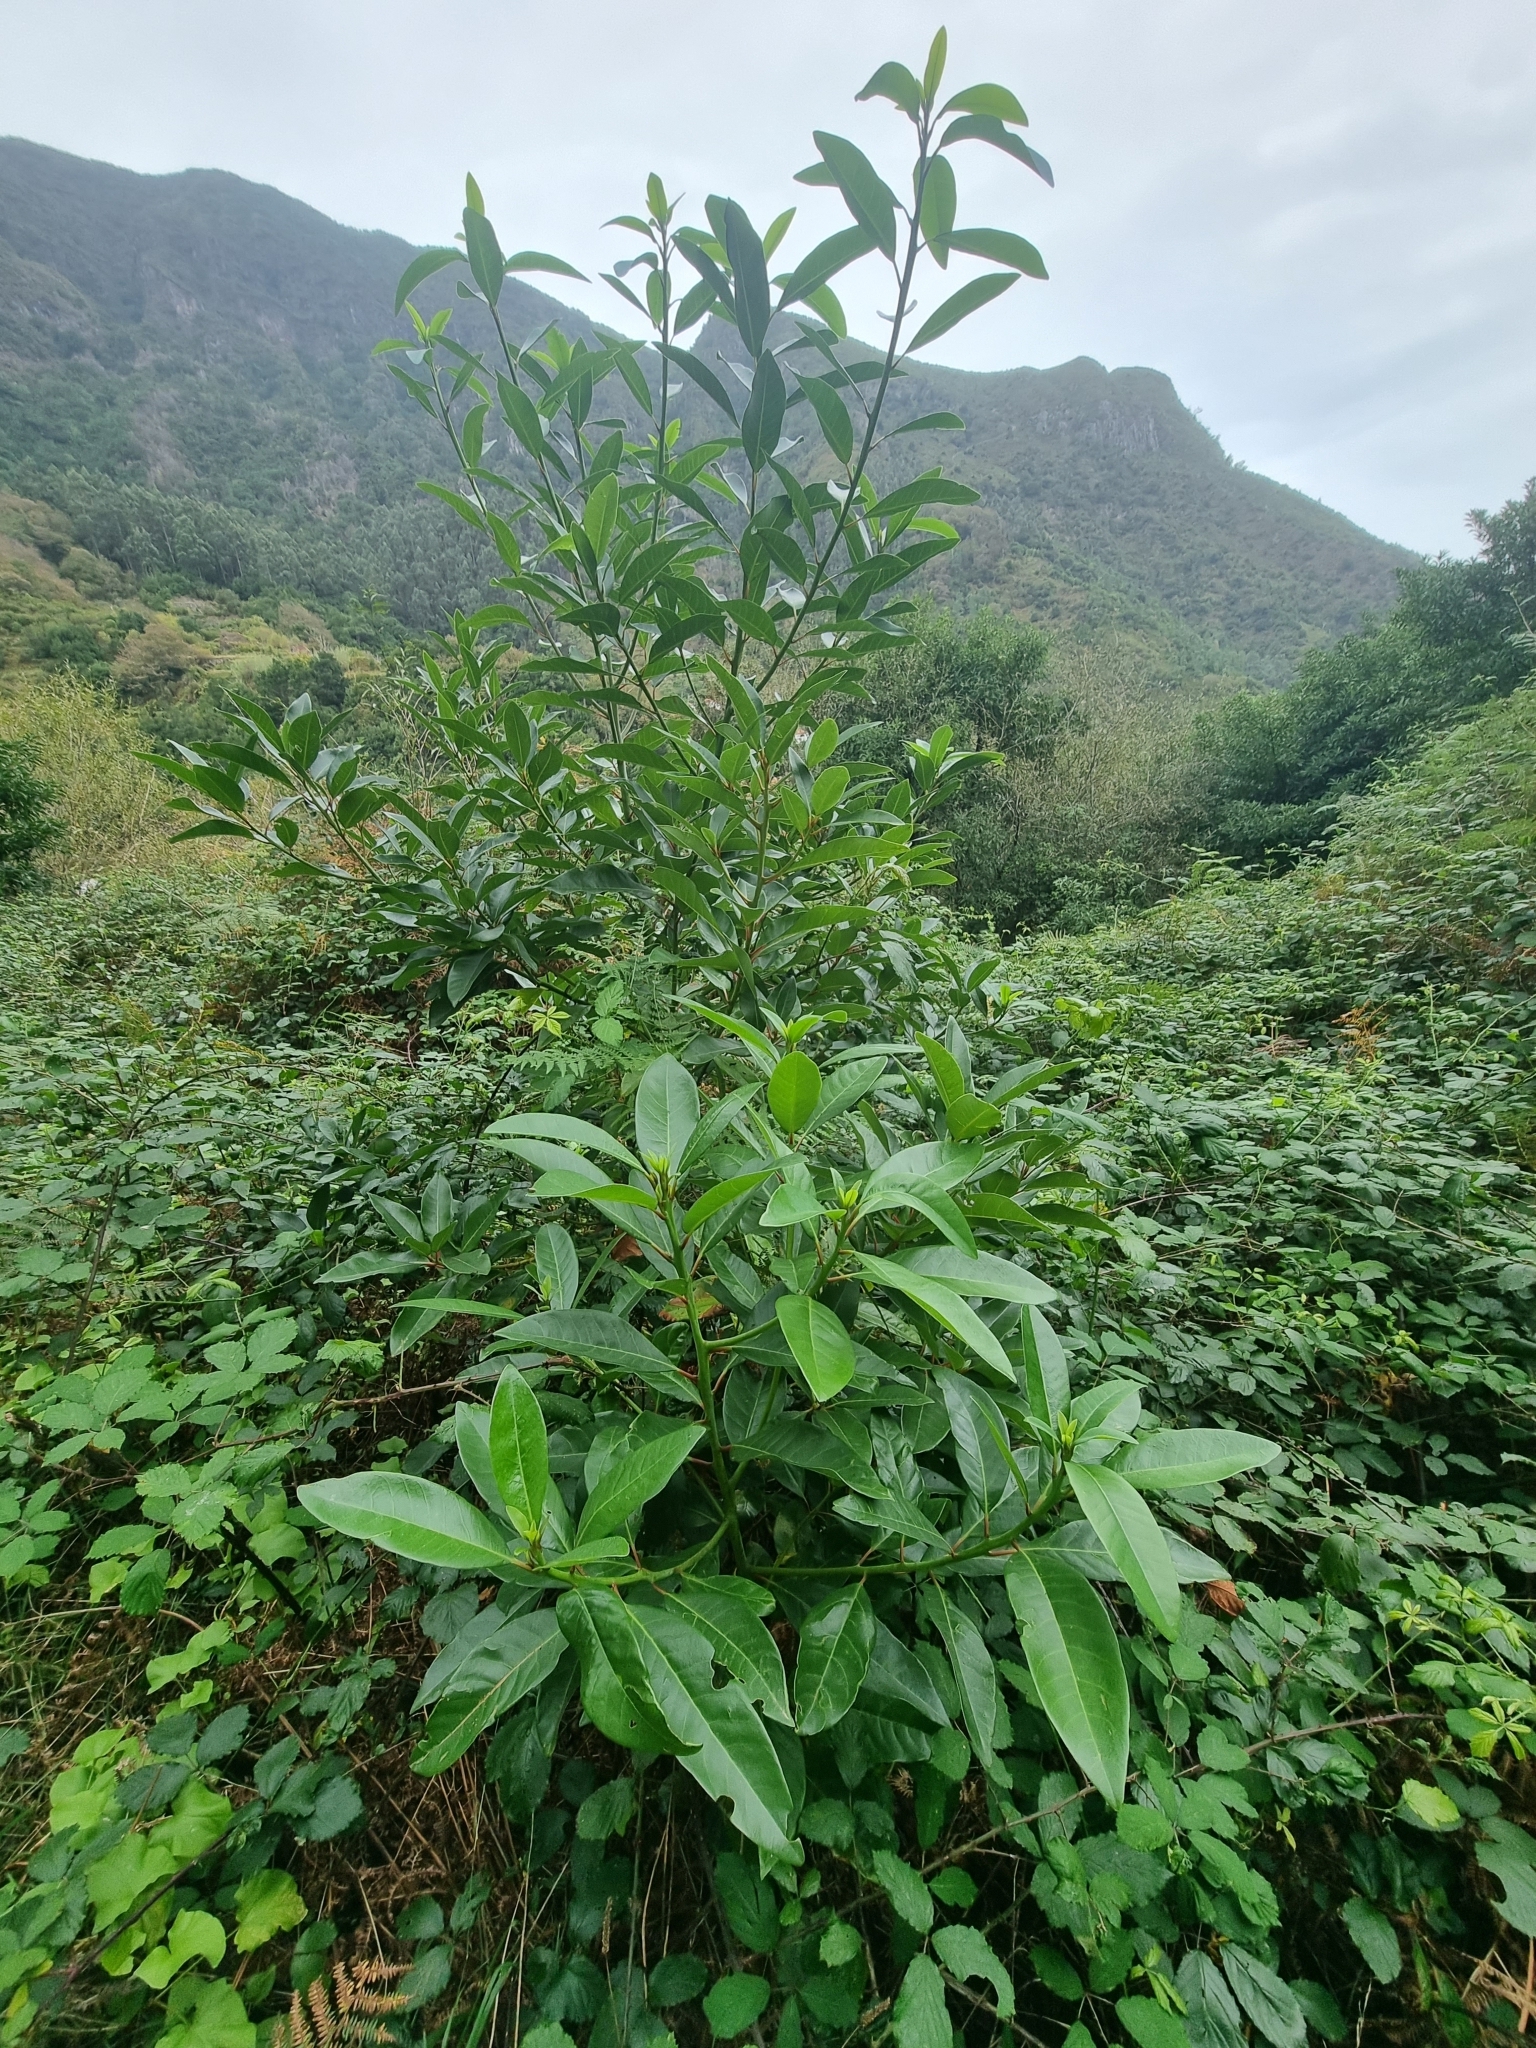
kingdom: Plantae
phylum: Tracheophyta
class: Magnoliopsida
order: Laurales
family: Lauraceae
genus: Persea
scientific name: Persea indica
